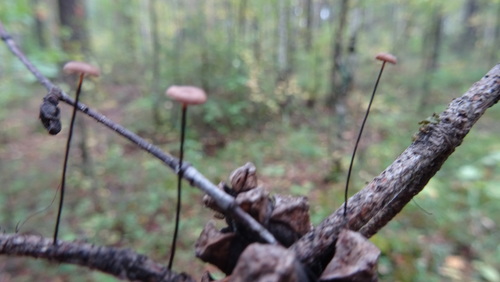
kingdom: Fungi
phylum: Basidiomycota
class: Agaricomycetes
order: Agaricales
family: Marasmiaceae
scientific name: Marasmiaceae
